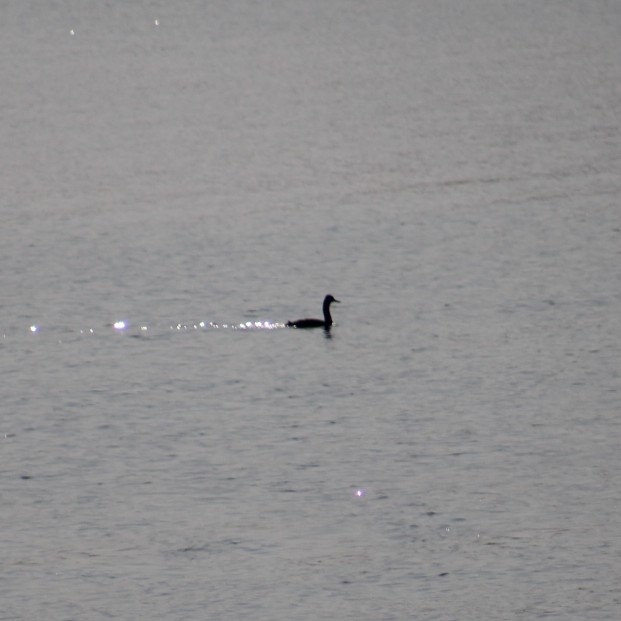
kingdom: Animalia
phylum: Chordata
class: Aves
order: Podicipediformes
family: Podicipedidae
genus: Podiceps
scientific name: Podiceps major
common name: Great grebe
